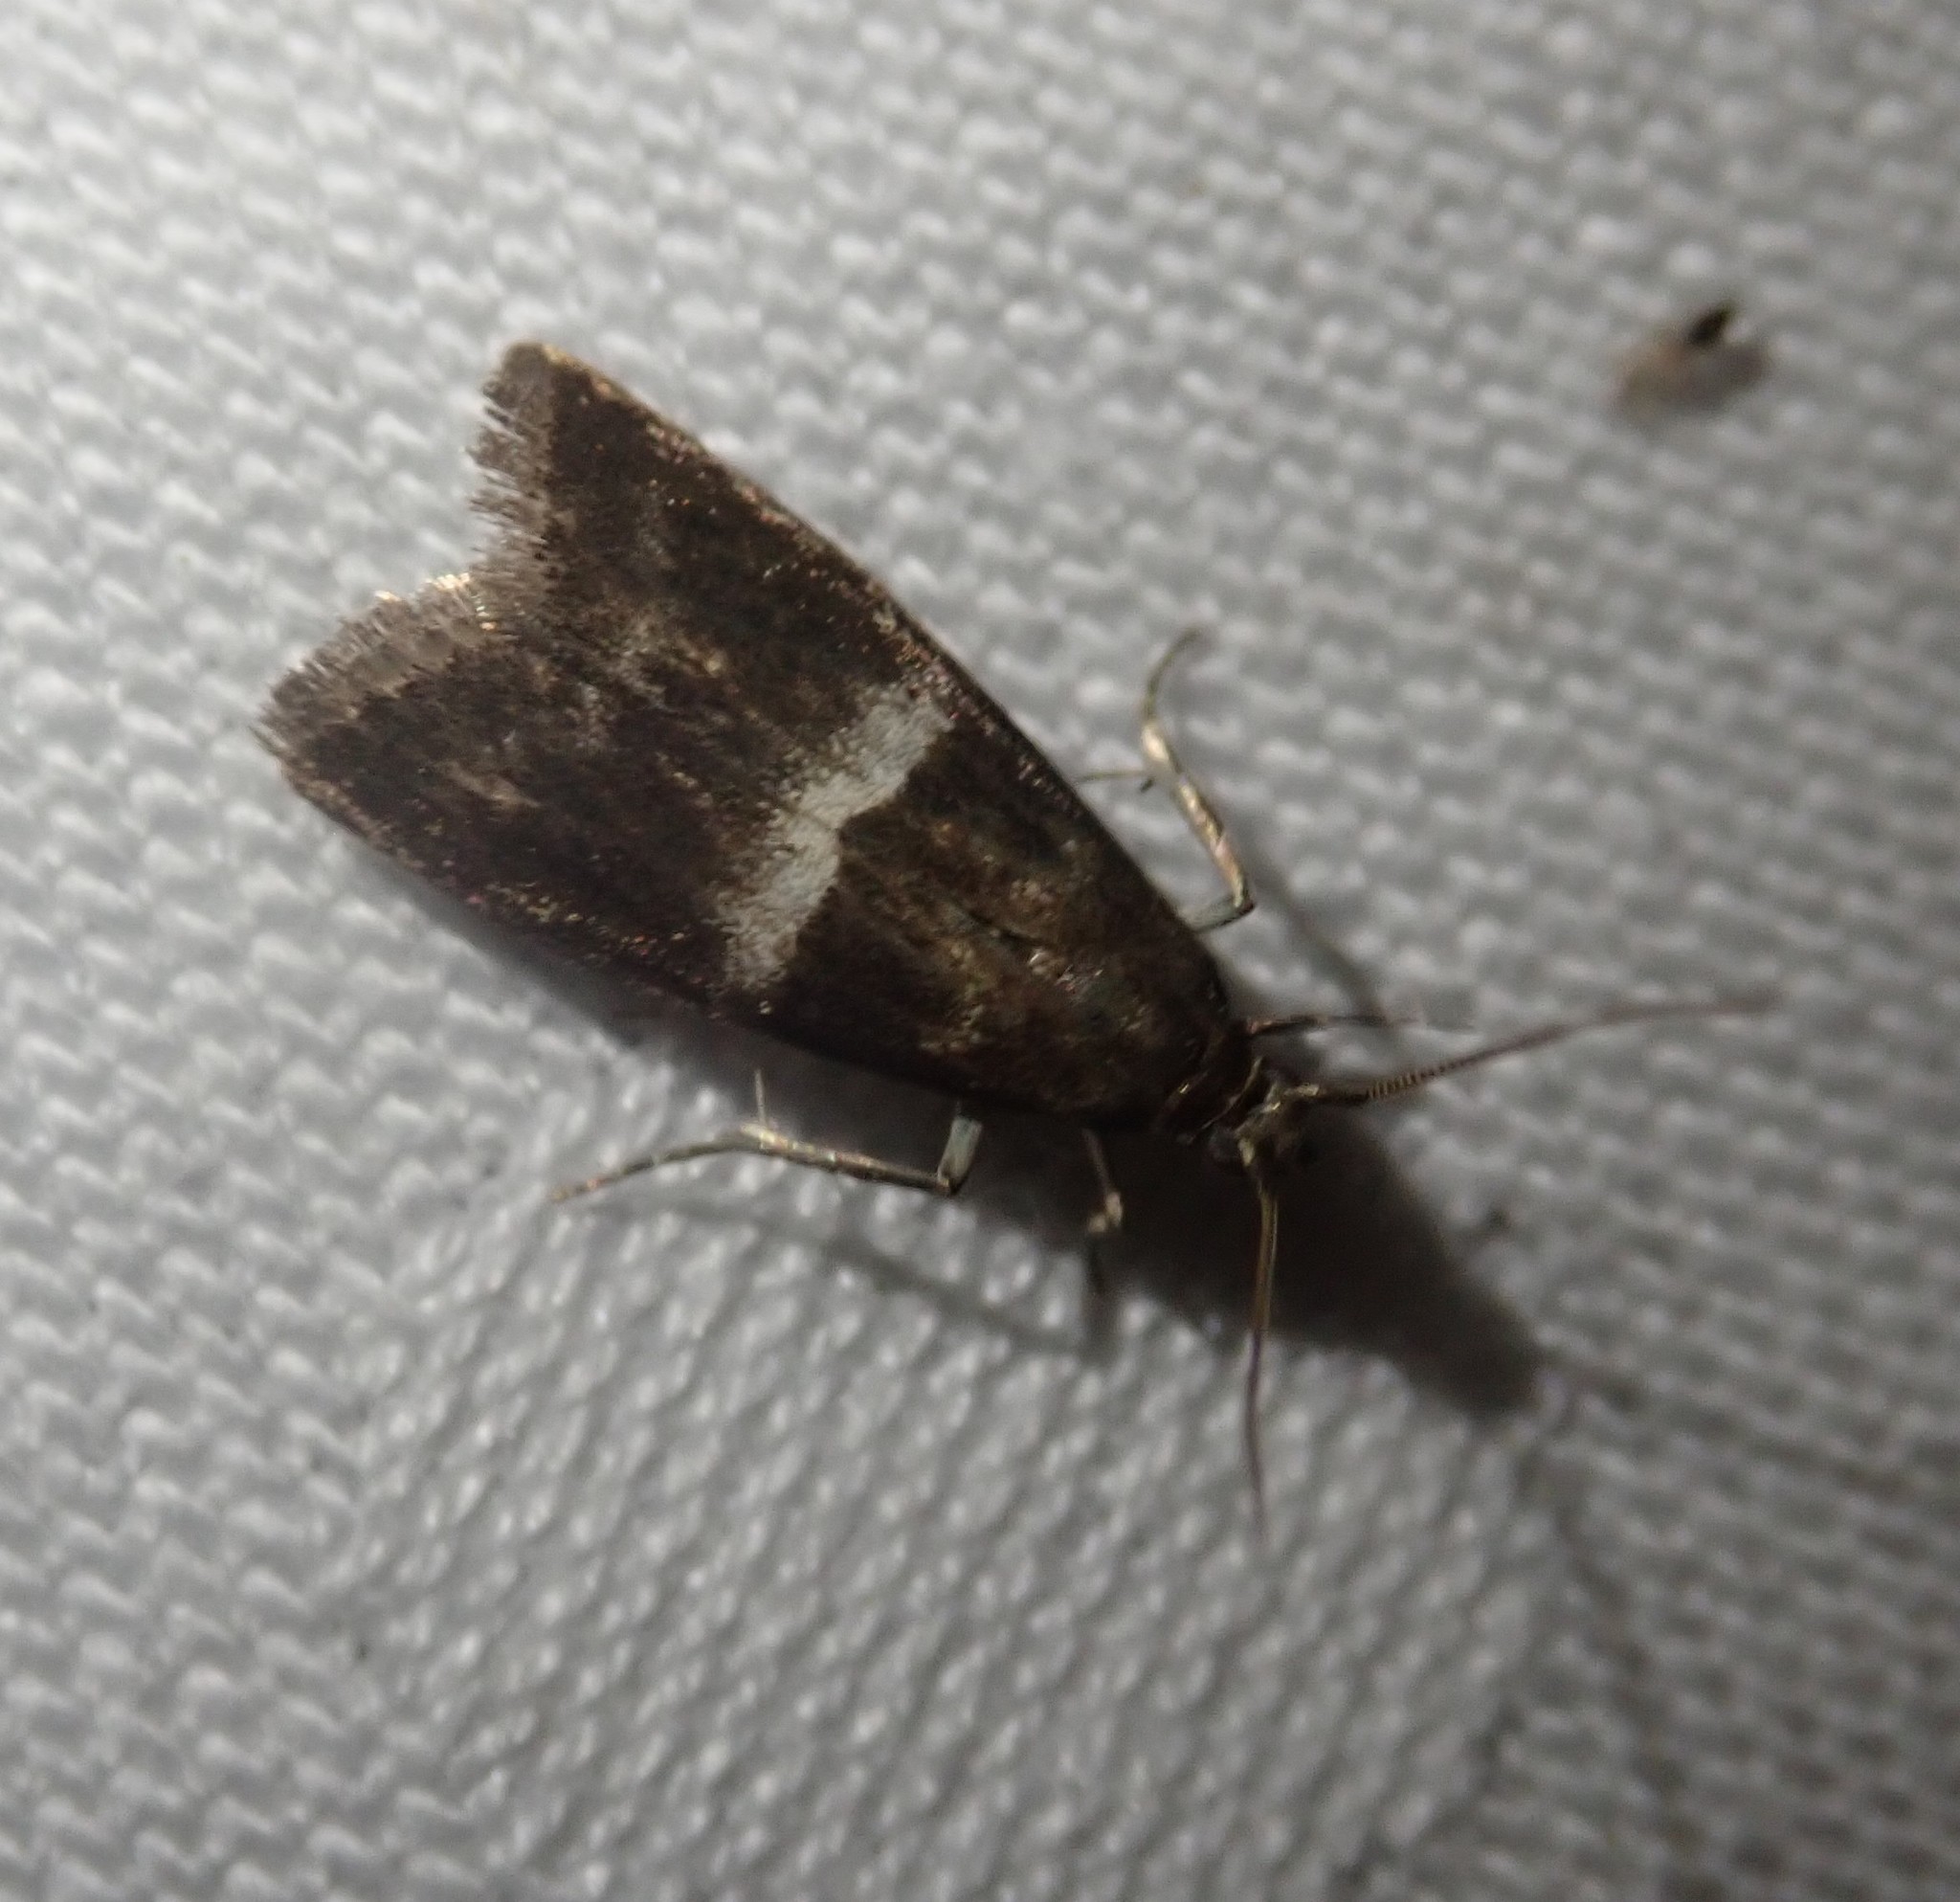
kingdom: Animalia
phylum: Arthropoda
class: Insecta
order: Lepidoptera
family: Pyralidae
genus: Elegia
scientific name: Elegia similella
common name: White-barred knot-horn
